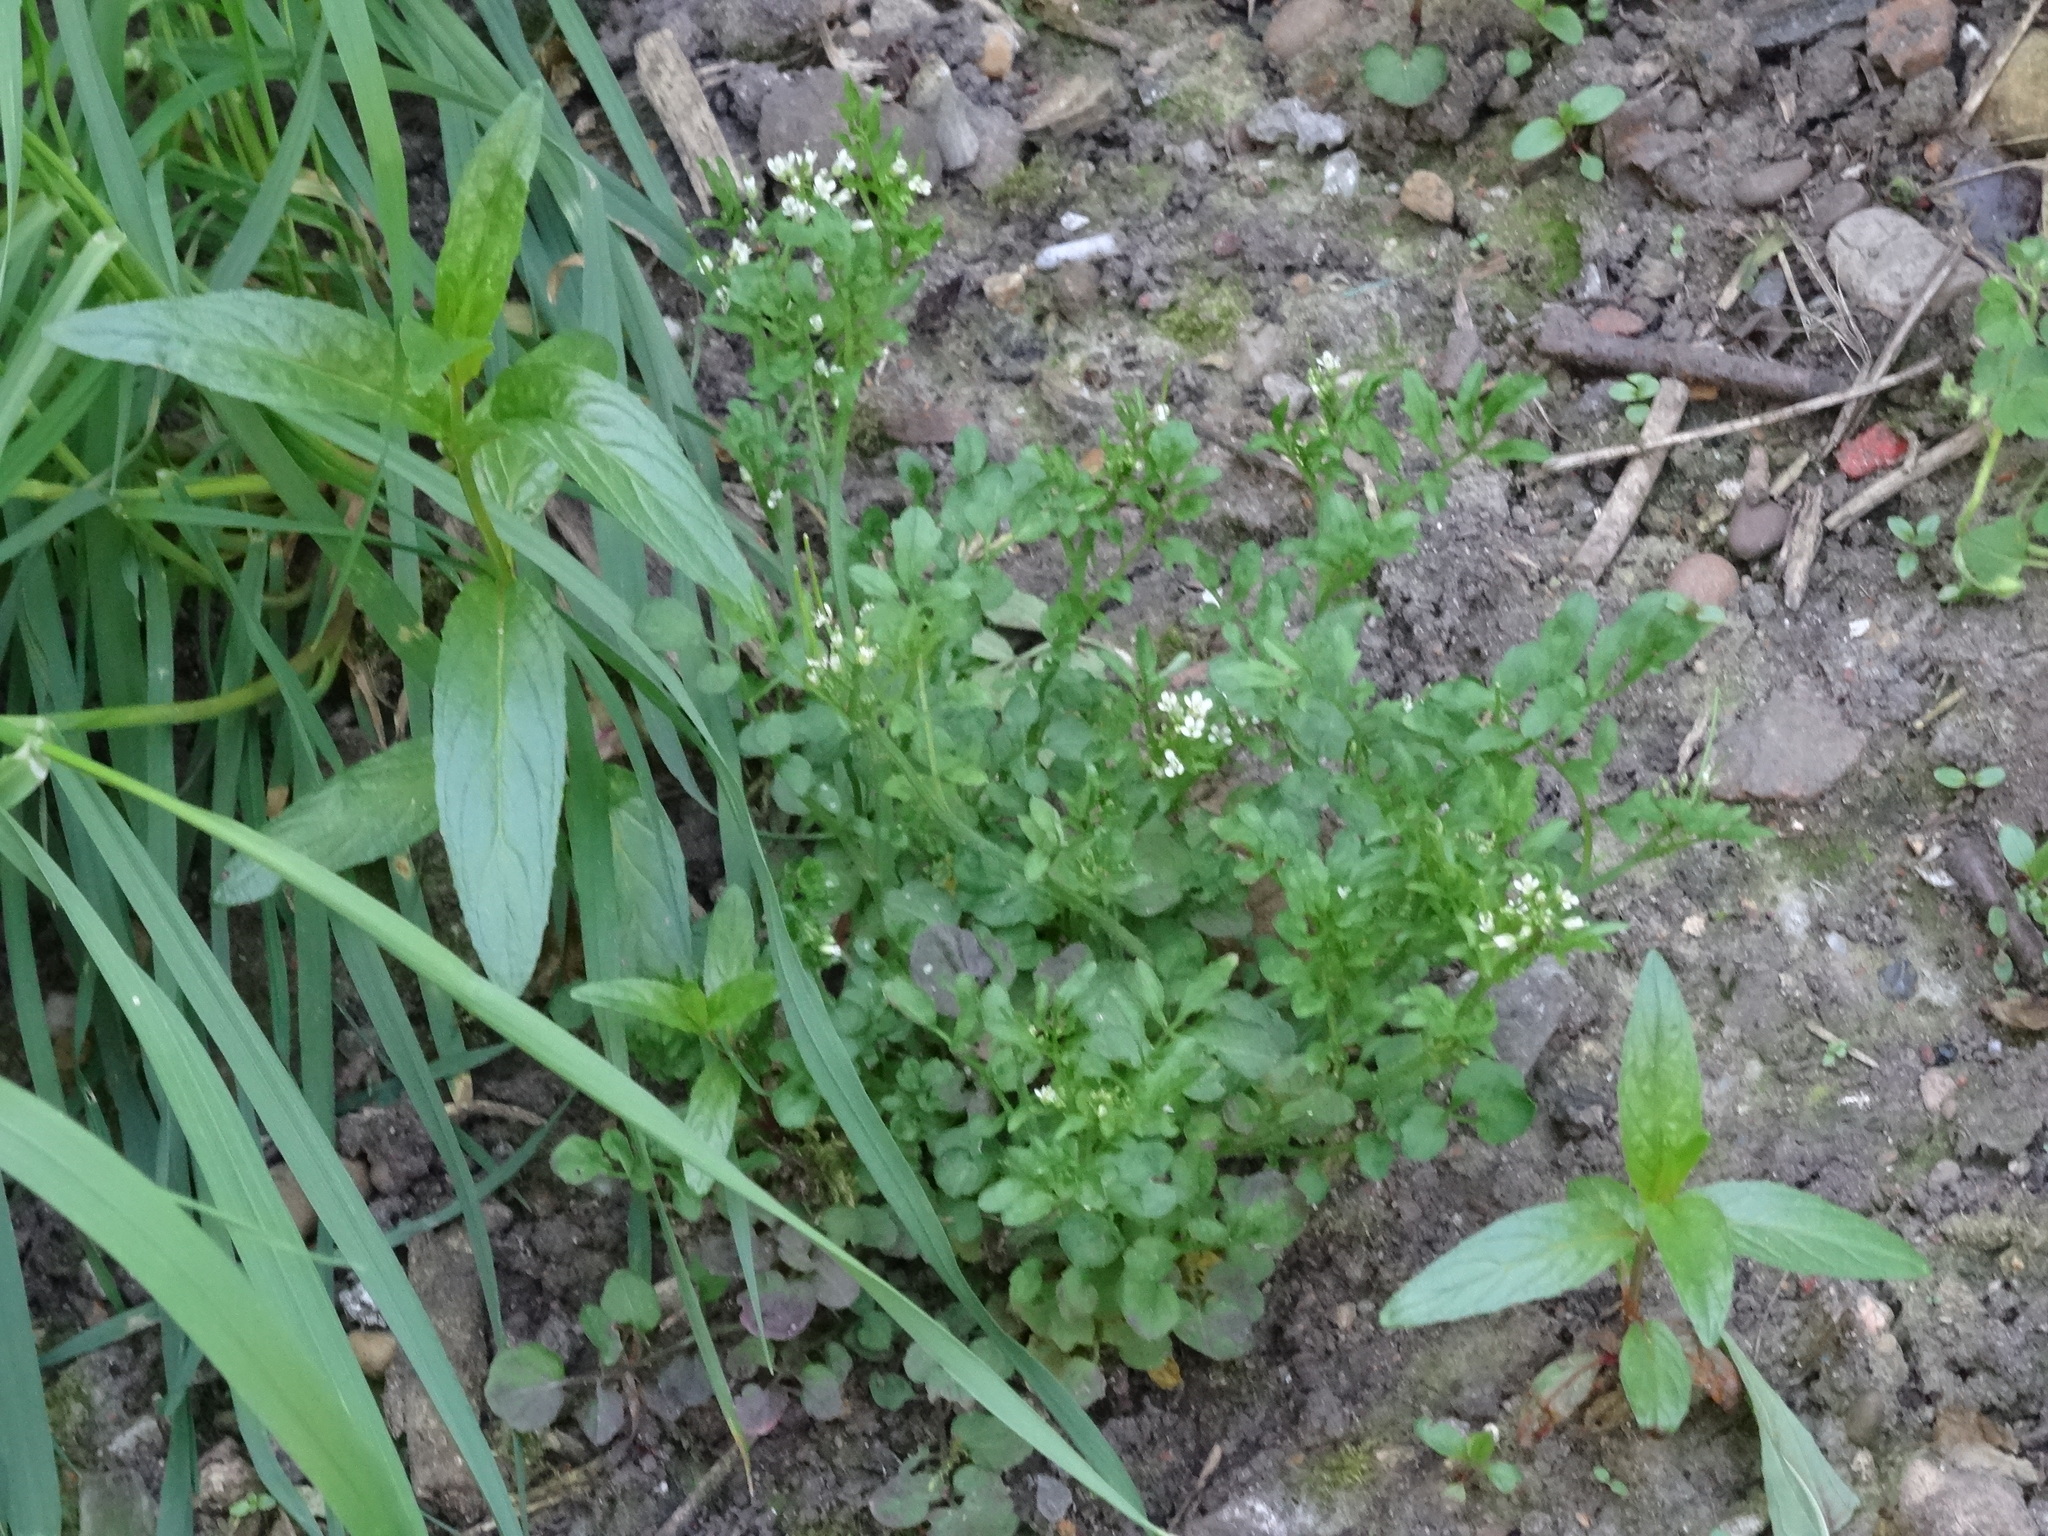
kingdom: Plantae
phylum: Tracheophyta
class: Magnoliopsida
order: Brassicales
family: Brassicaceae
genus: Cardamine
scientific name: Cardamine flexuosa
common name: Woodland bittercress
